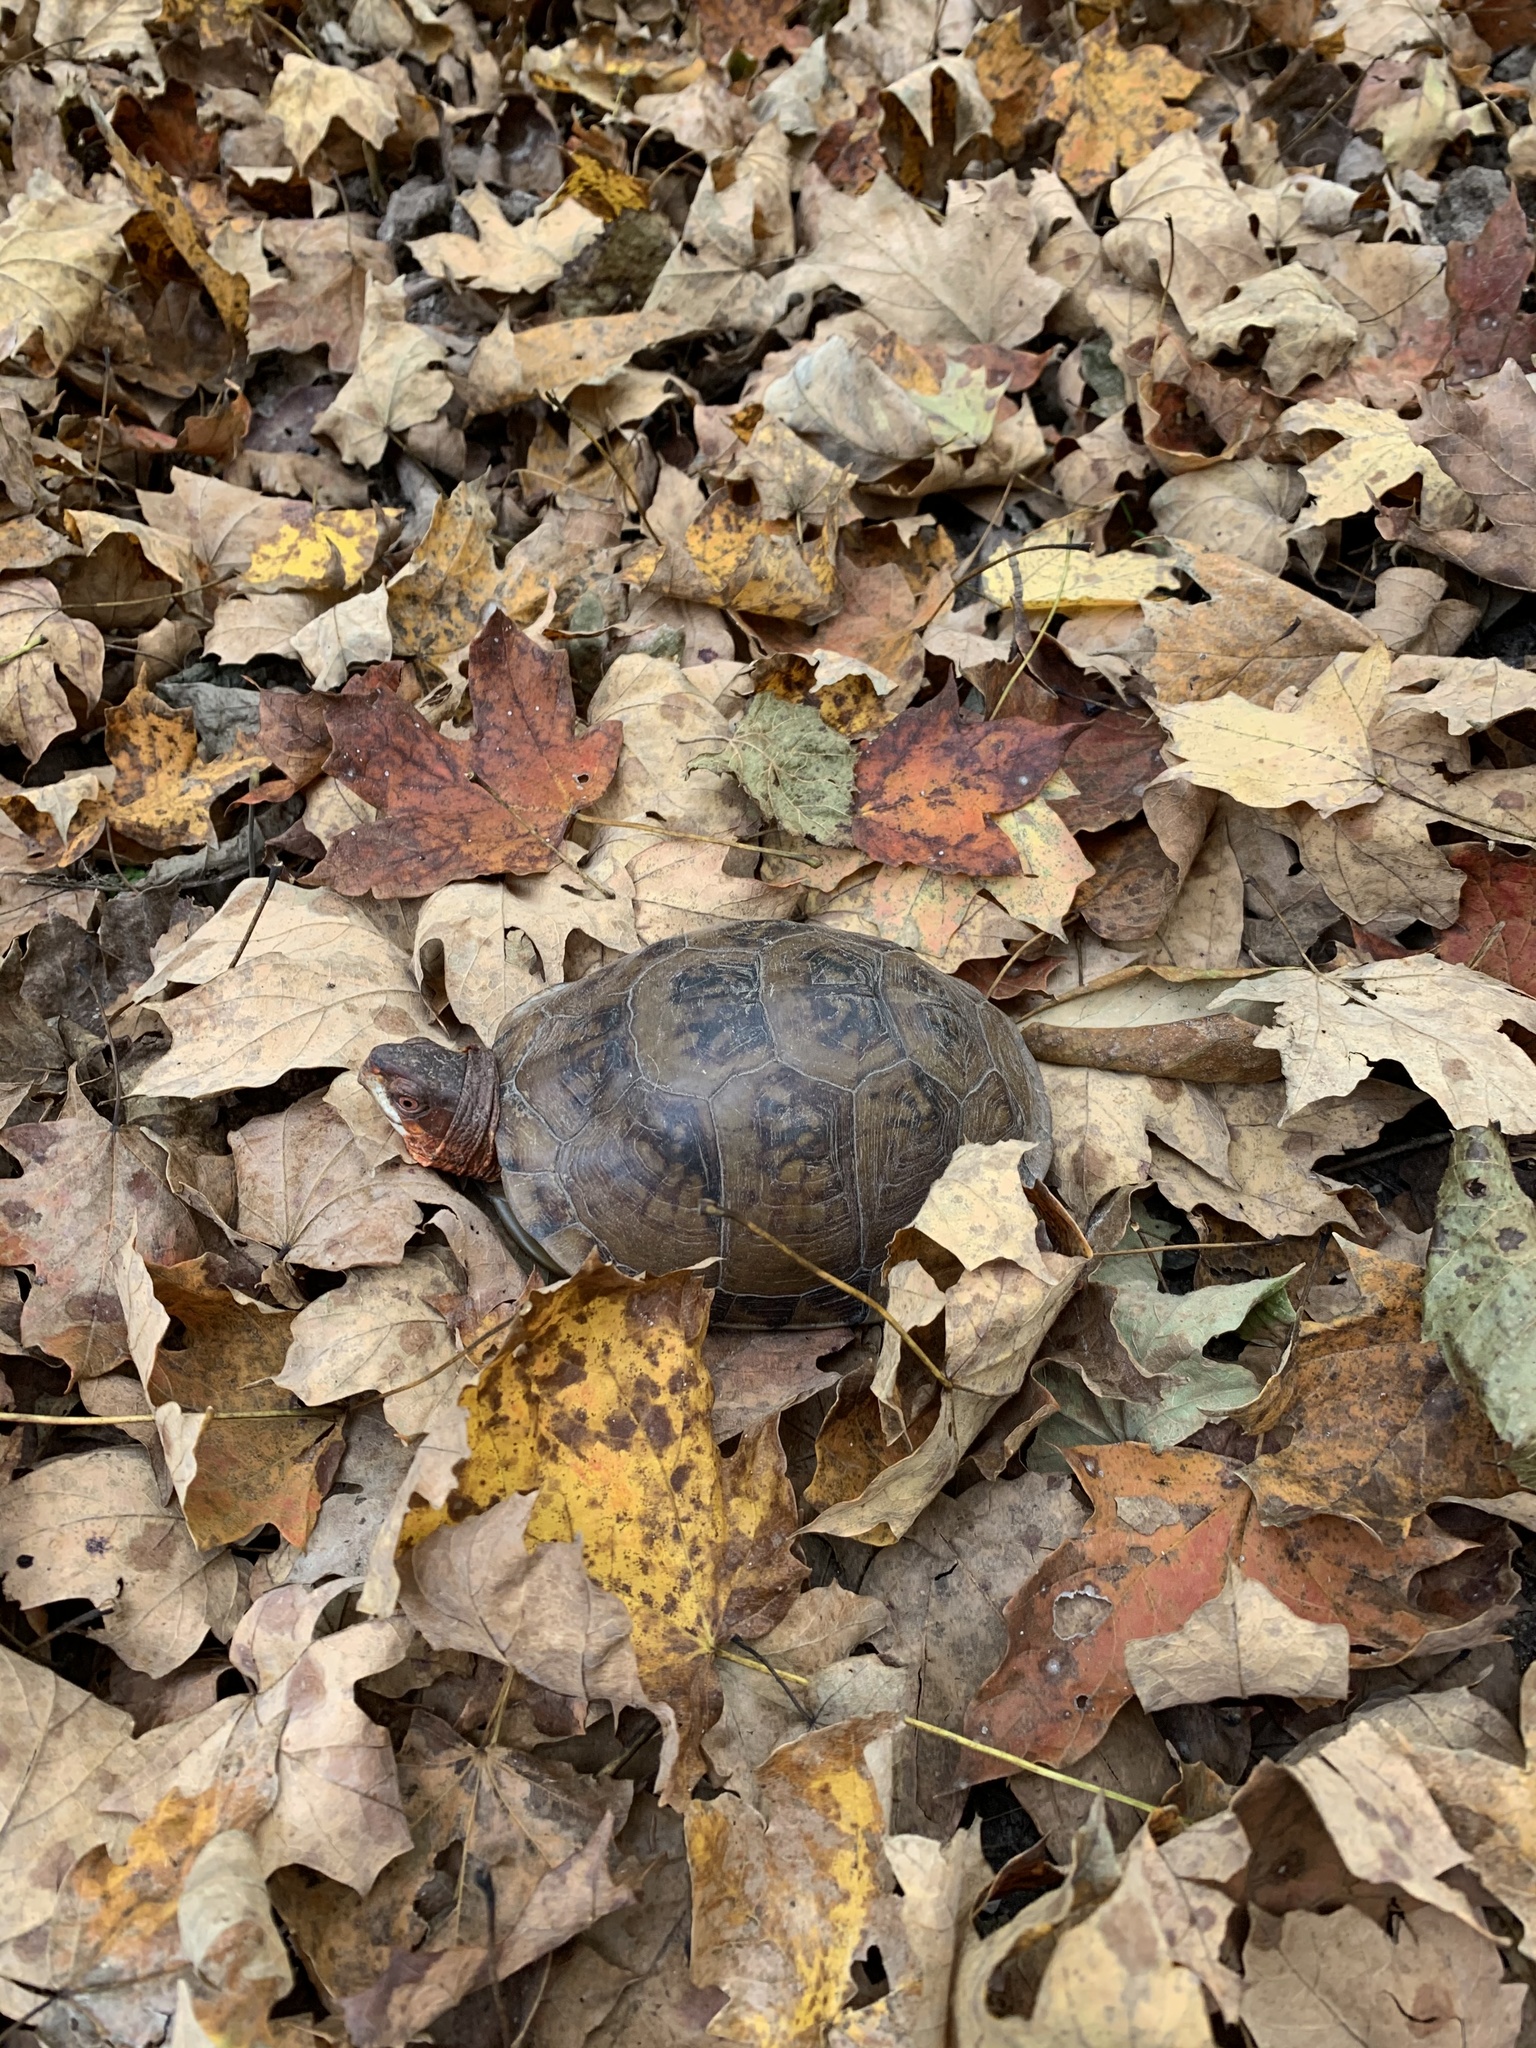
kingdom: Animalia
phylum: Chordata
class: Testudines
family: Emydidae
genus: Terrapene
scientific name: Terrapene carolina
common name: Common box turtle
